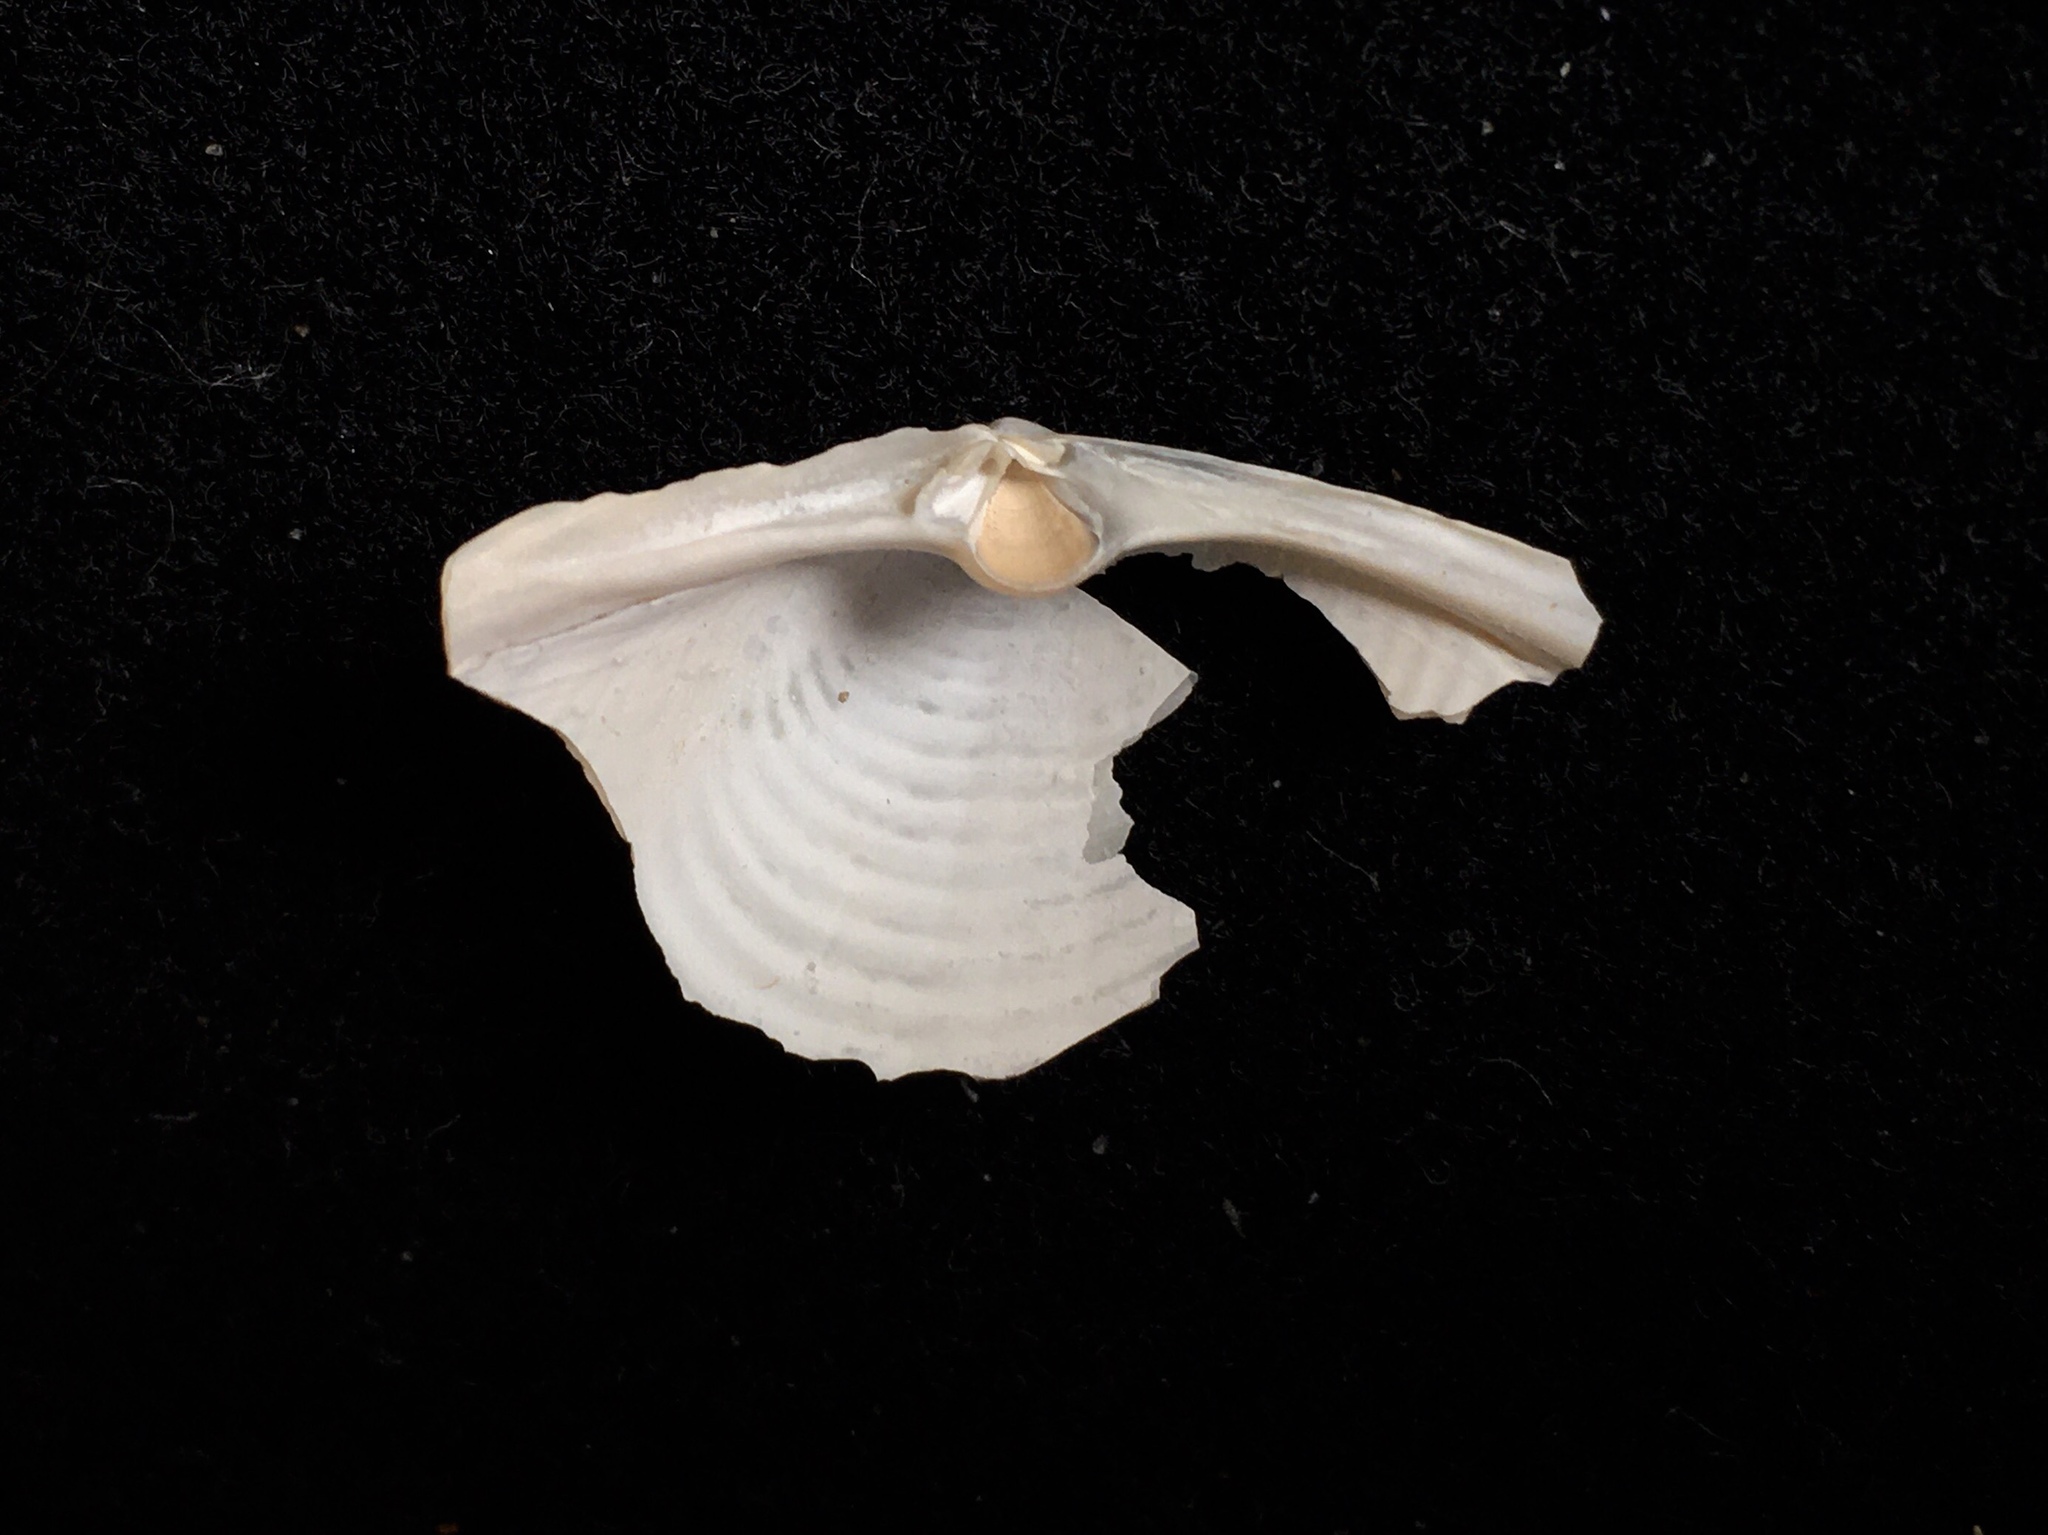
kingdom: Animalia
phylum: Mollusca
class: Bivalvia
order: Venerida
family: Anatinellidae
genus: Raeta
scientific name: Raeta plicatella
